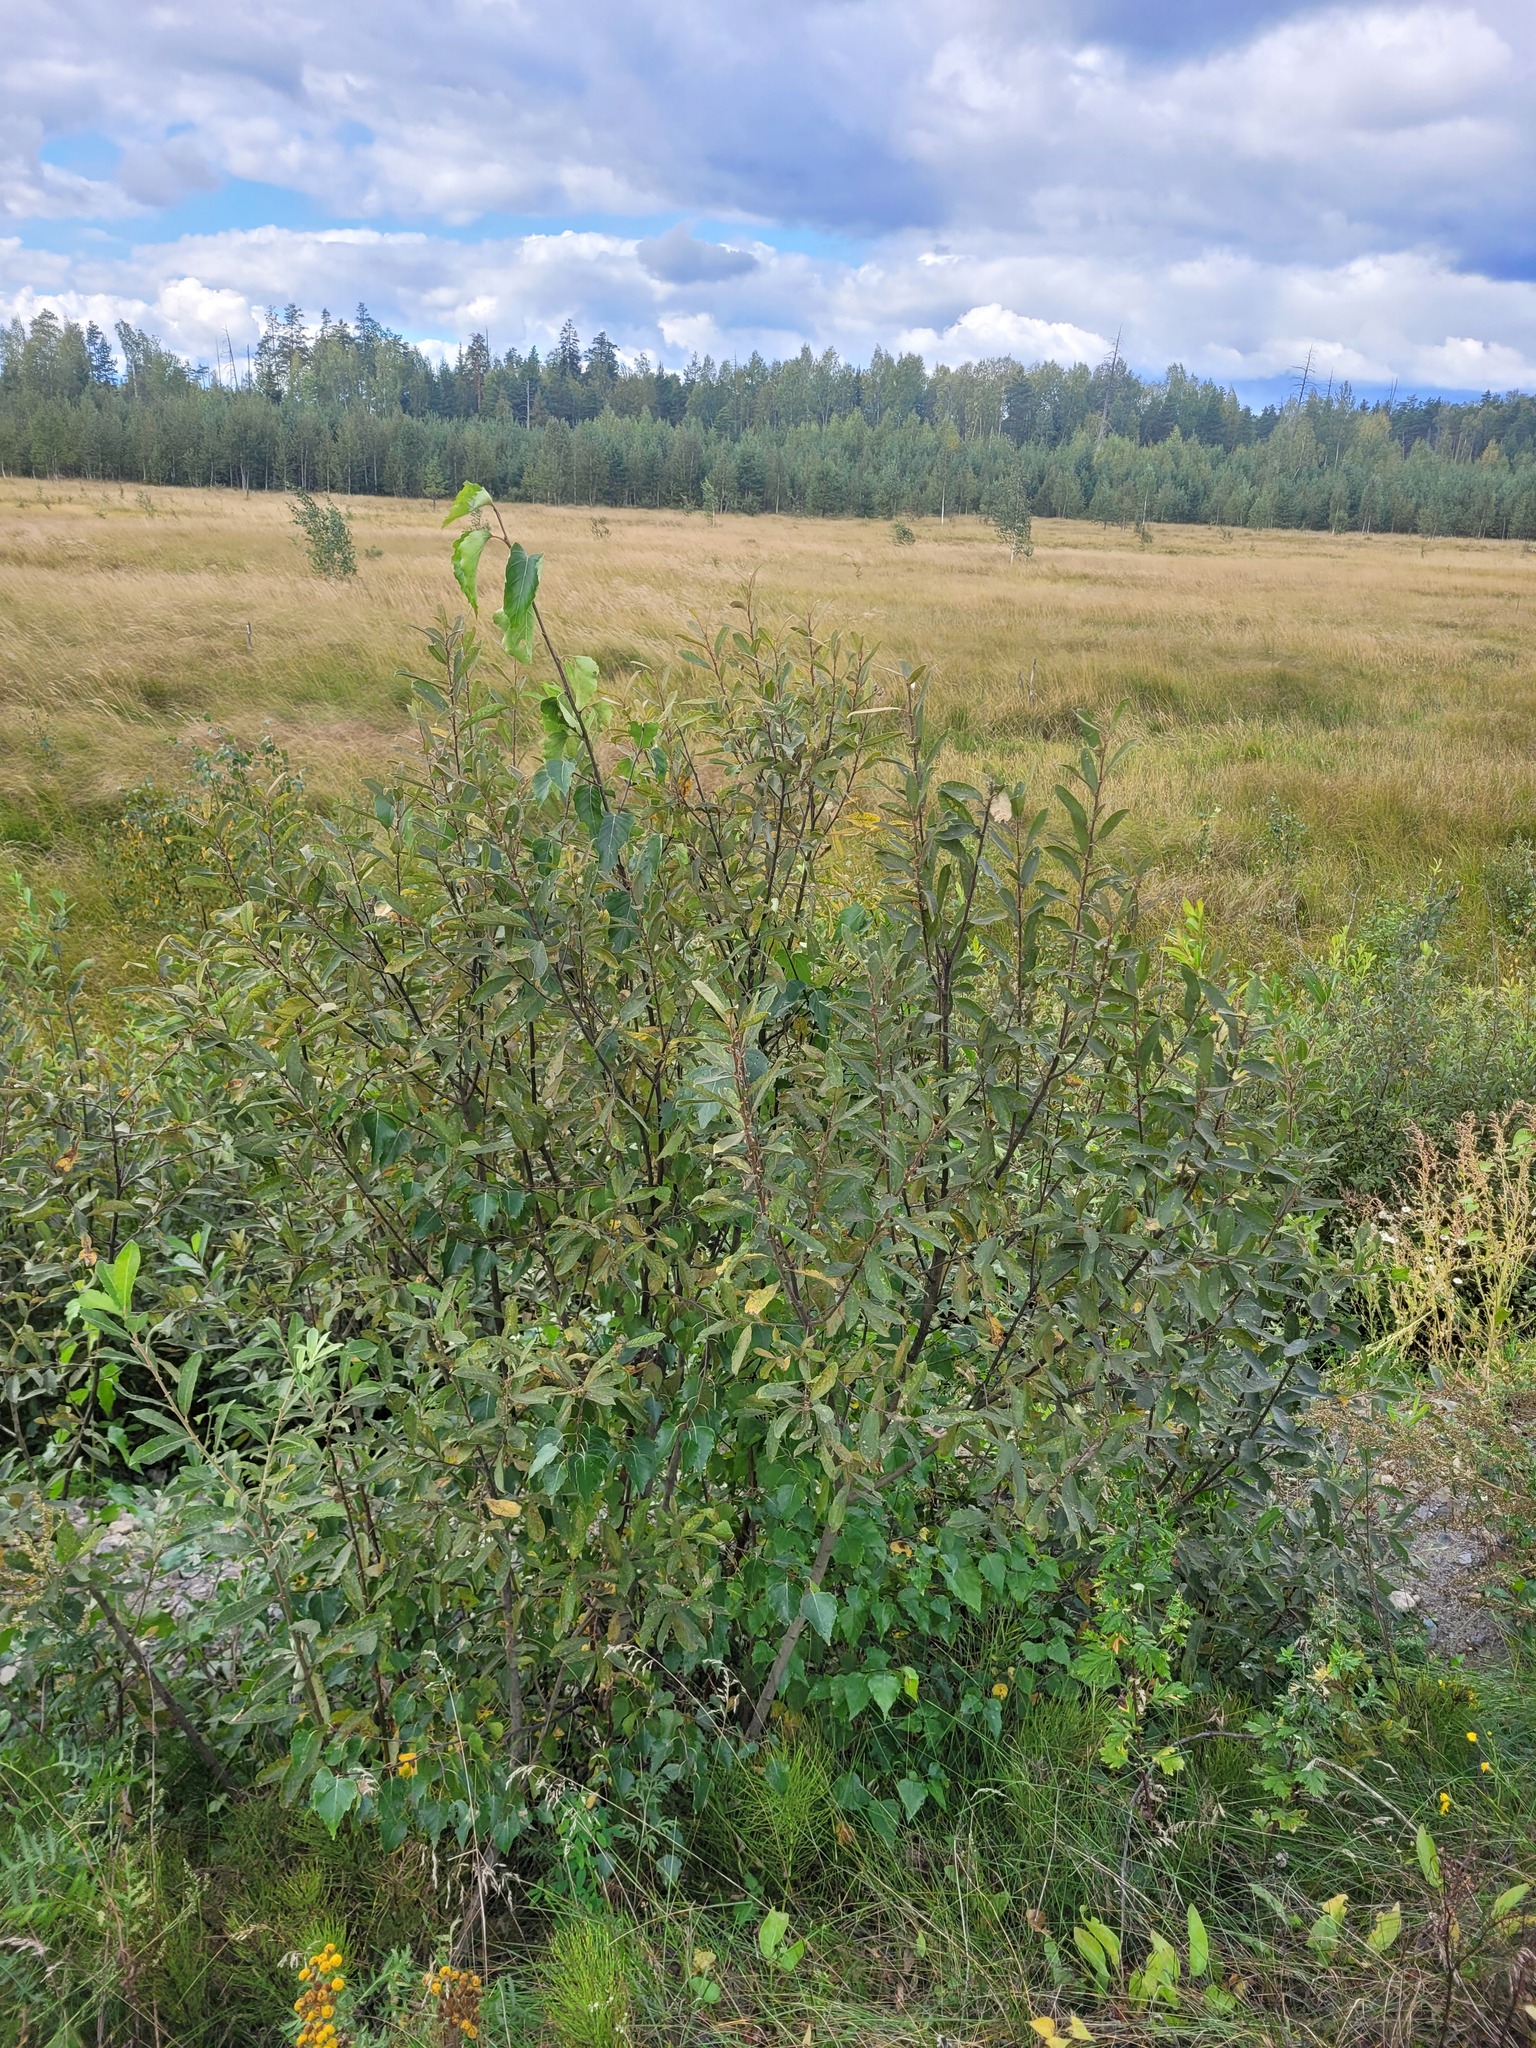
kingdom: Plantae
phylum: Tracheophyta
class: Magnoliopsida
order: Malpighiales
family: Salicaceae
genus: Salix
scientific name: Salix cinerea
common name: Common sallow
